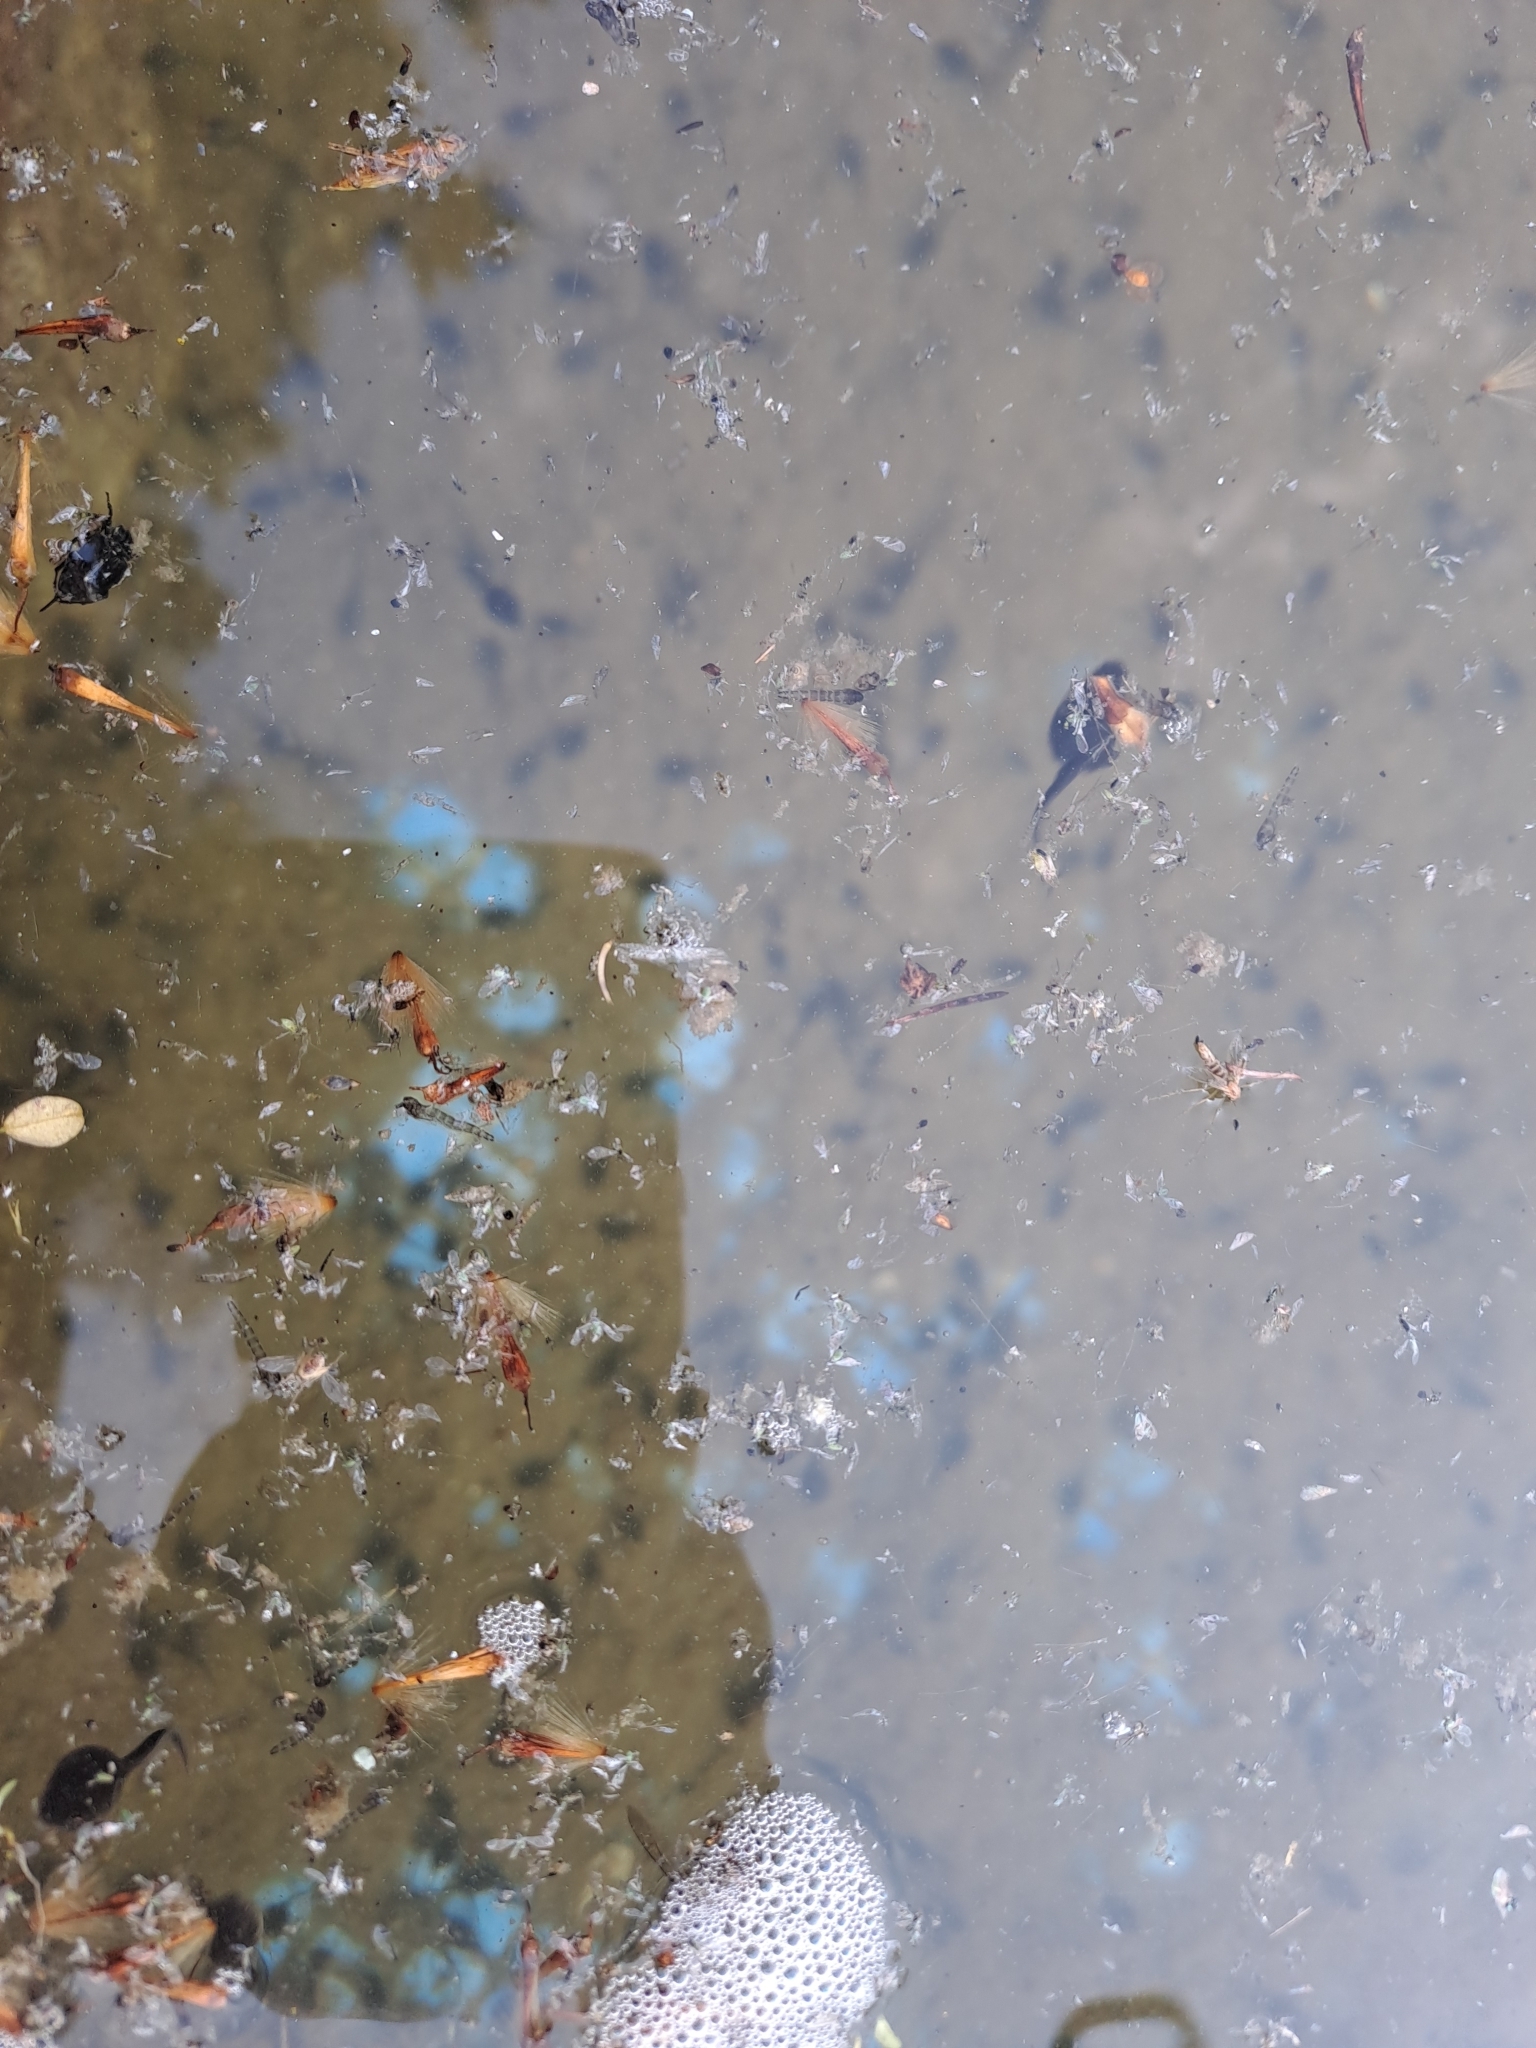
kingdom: Animalia
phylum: Chordata
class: Amphibia
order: Anura
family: Bufonidae
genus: Bufotes
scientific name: Bufotes viridis
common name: European green toad
